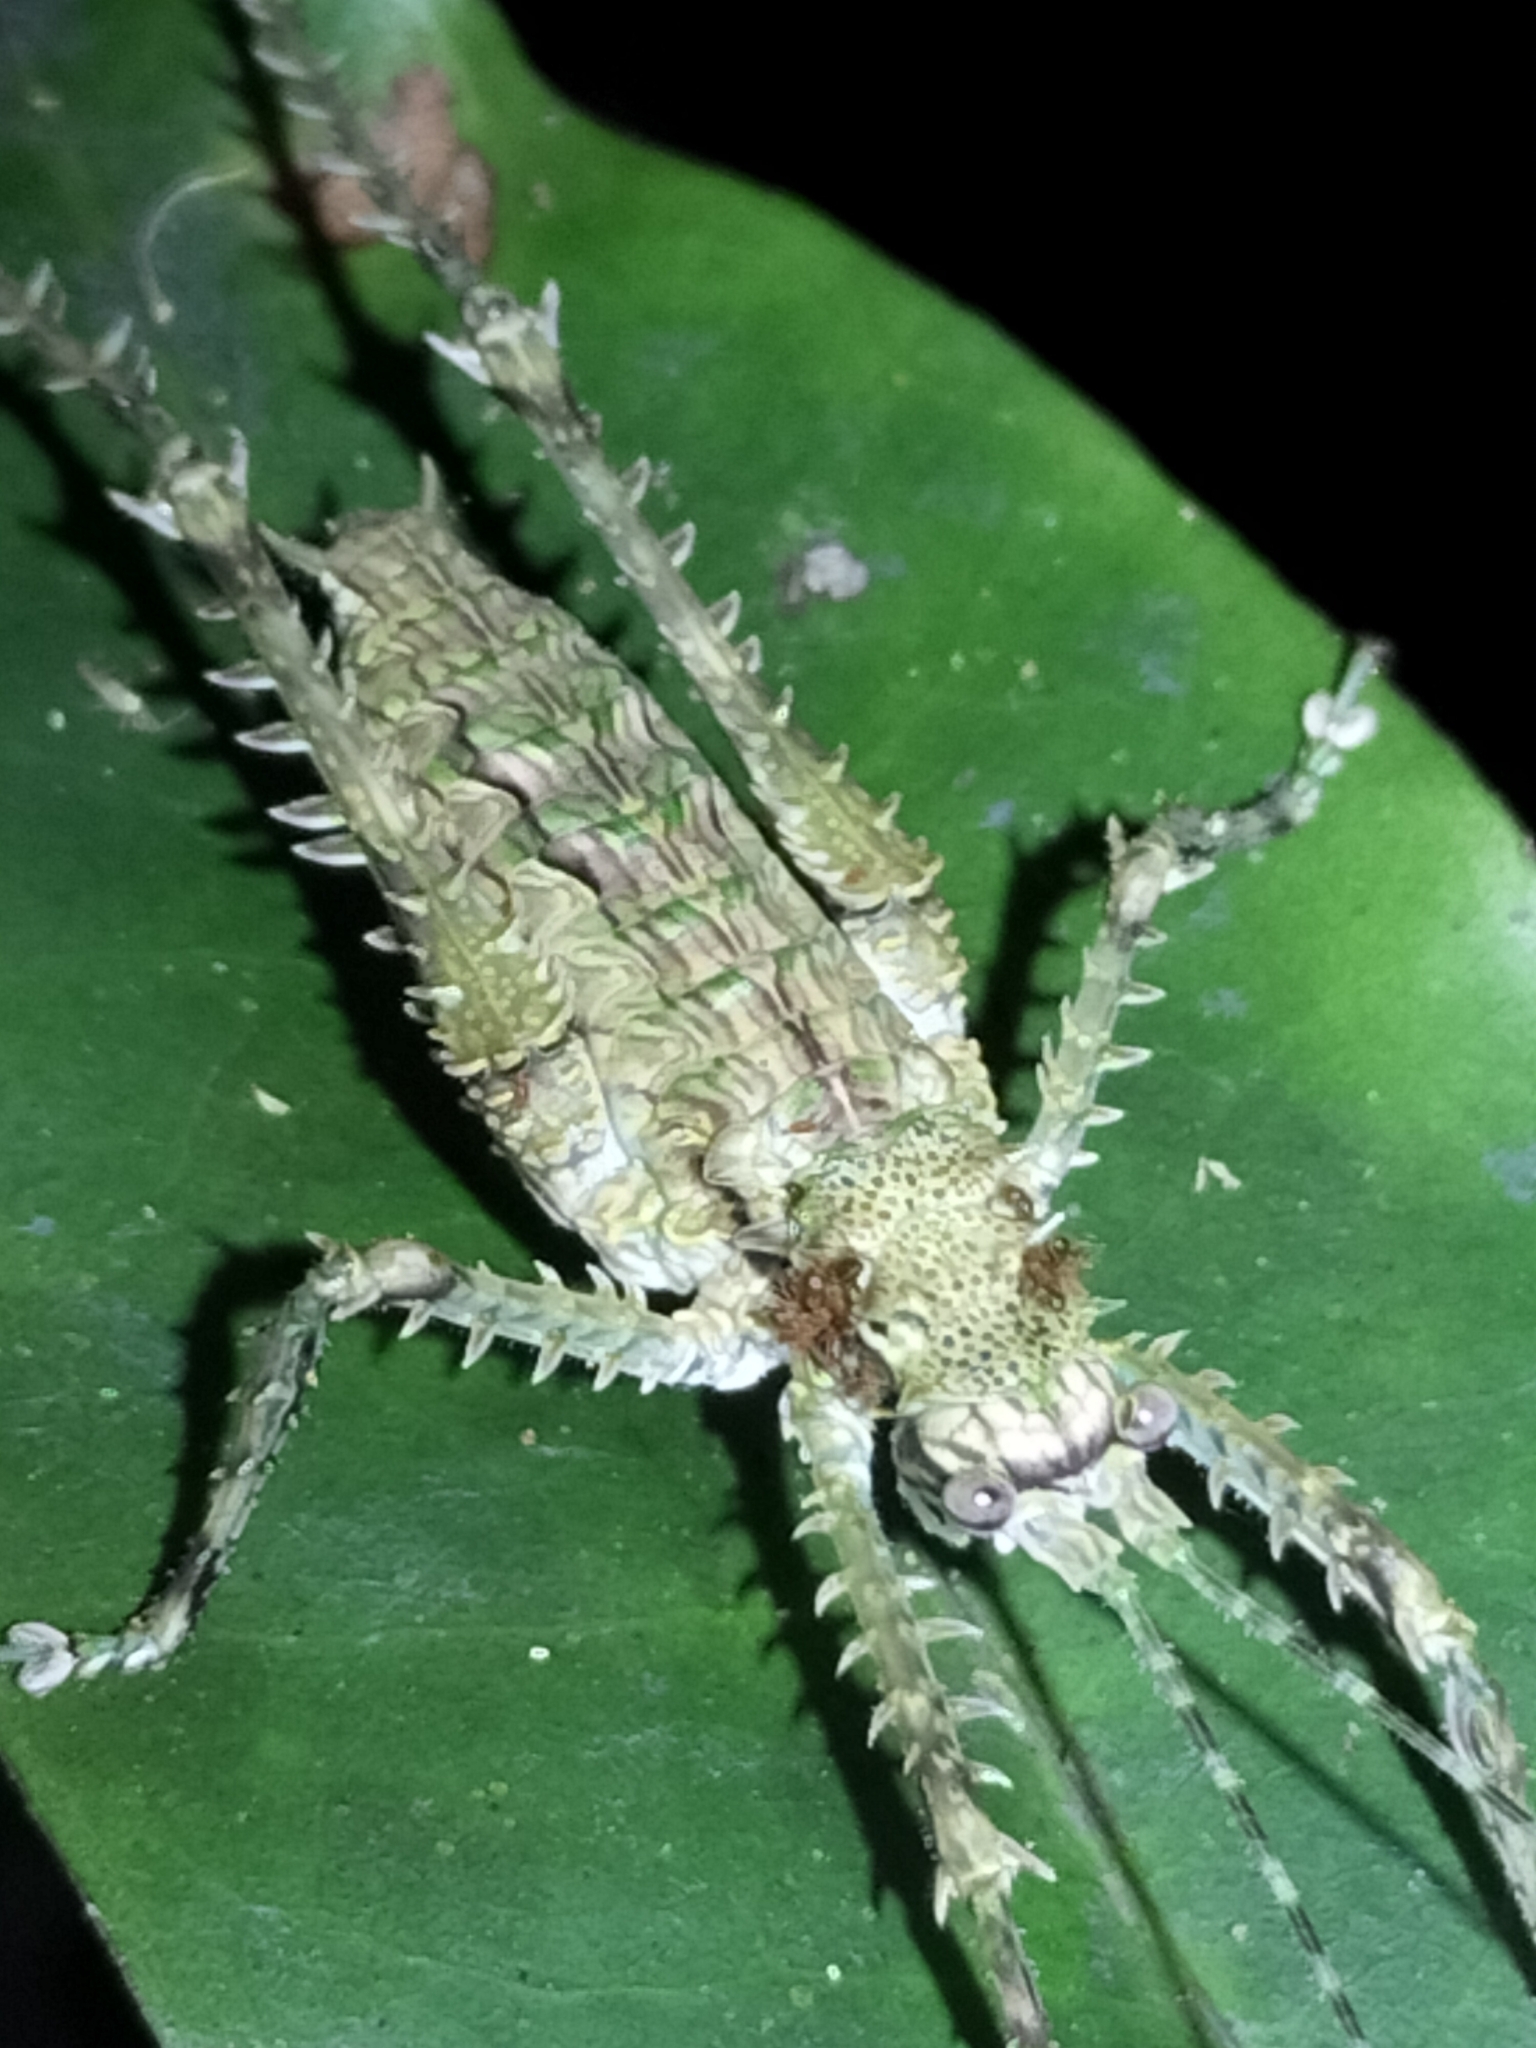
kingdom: Animalia
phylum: Arthropoda
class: Insecta
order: Orthoptera
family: Tettigoniidae
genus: Phricta
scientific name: Phricta spinosa
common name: Giant spiny forest katydid
